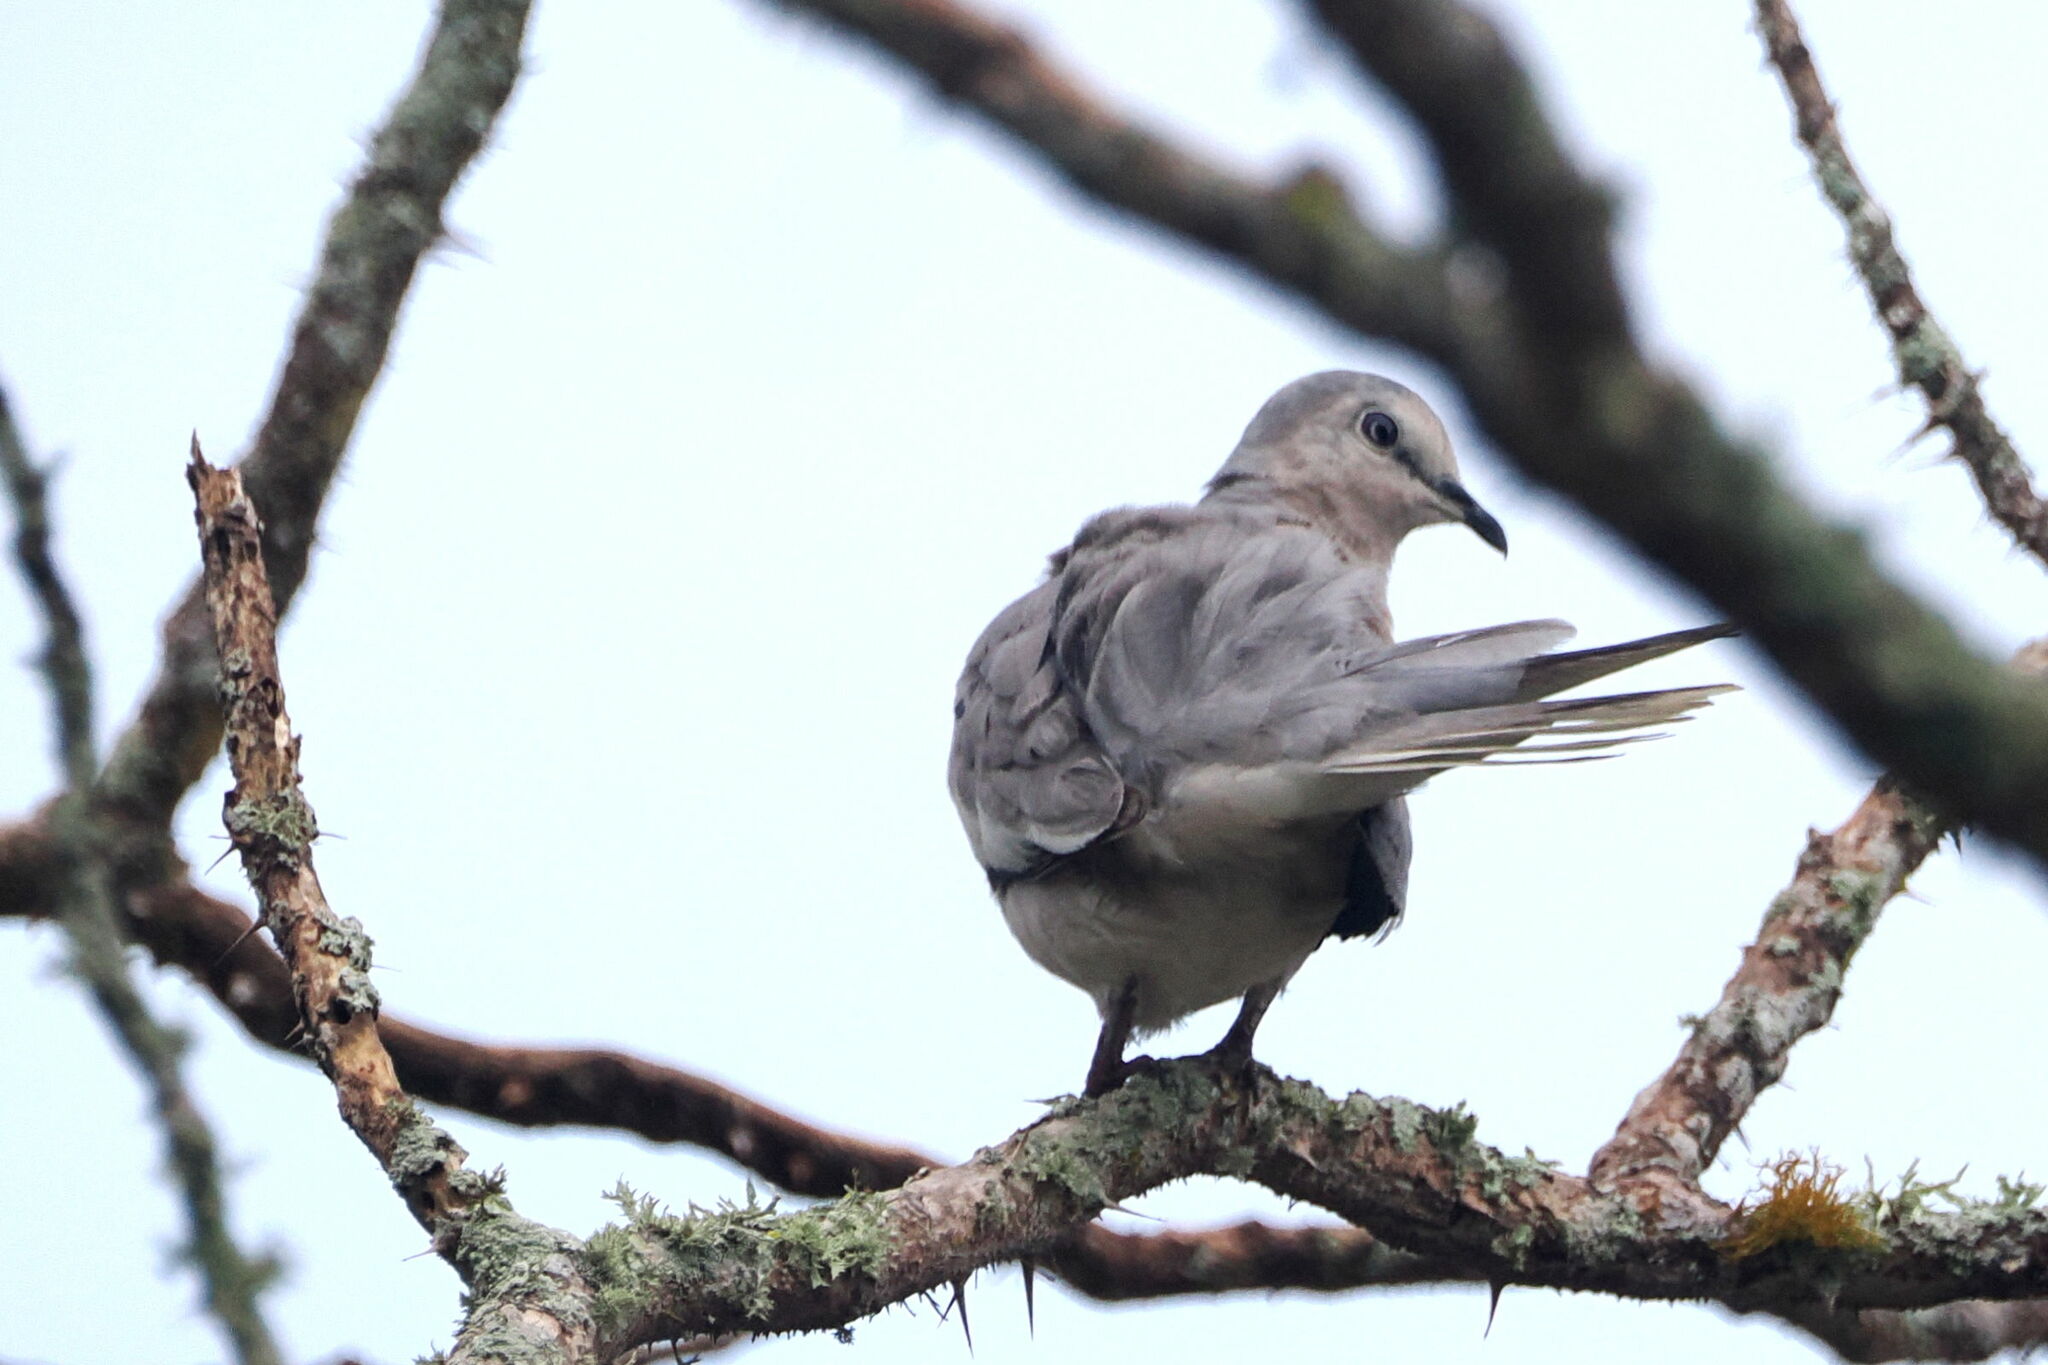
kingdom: Animalia
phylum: Chordata
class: Aves
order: Columbiformes
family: Columbidae
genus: Columbina
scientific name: Columbina picui
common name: Picui ground dove
